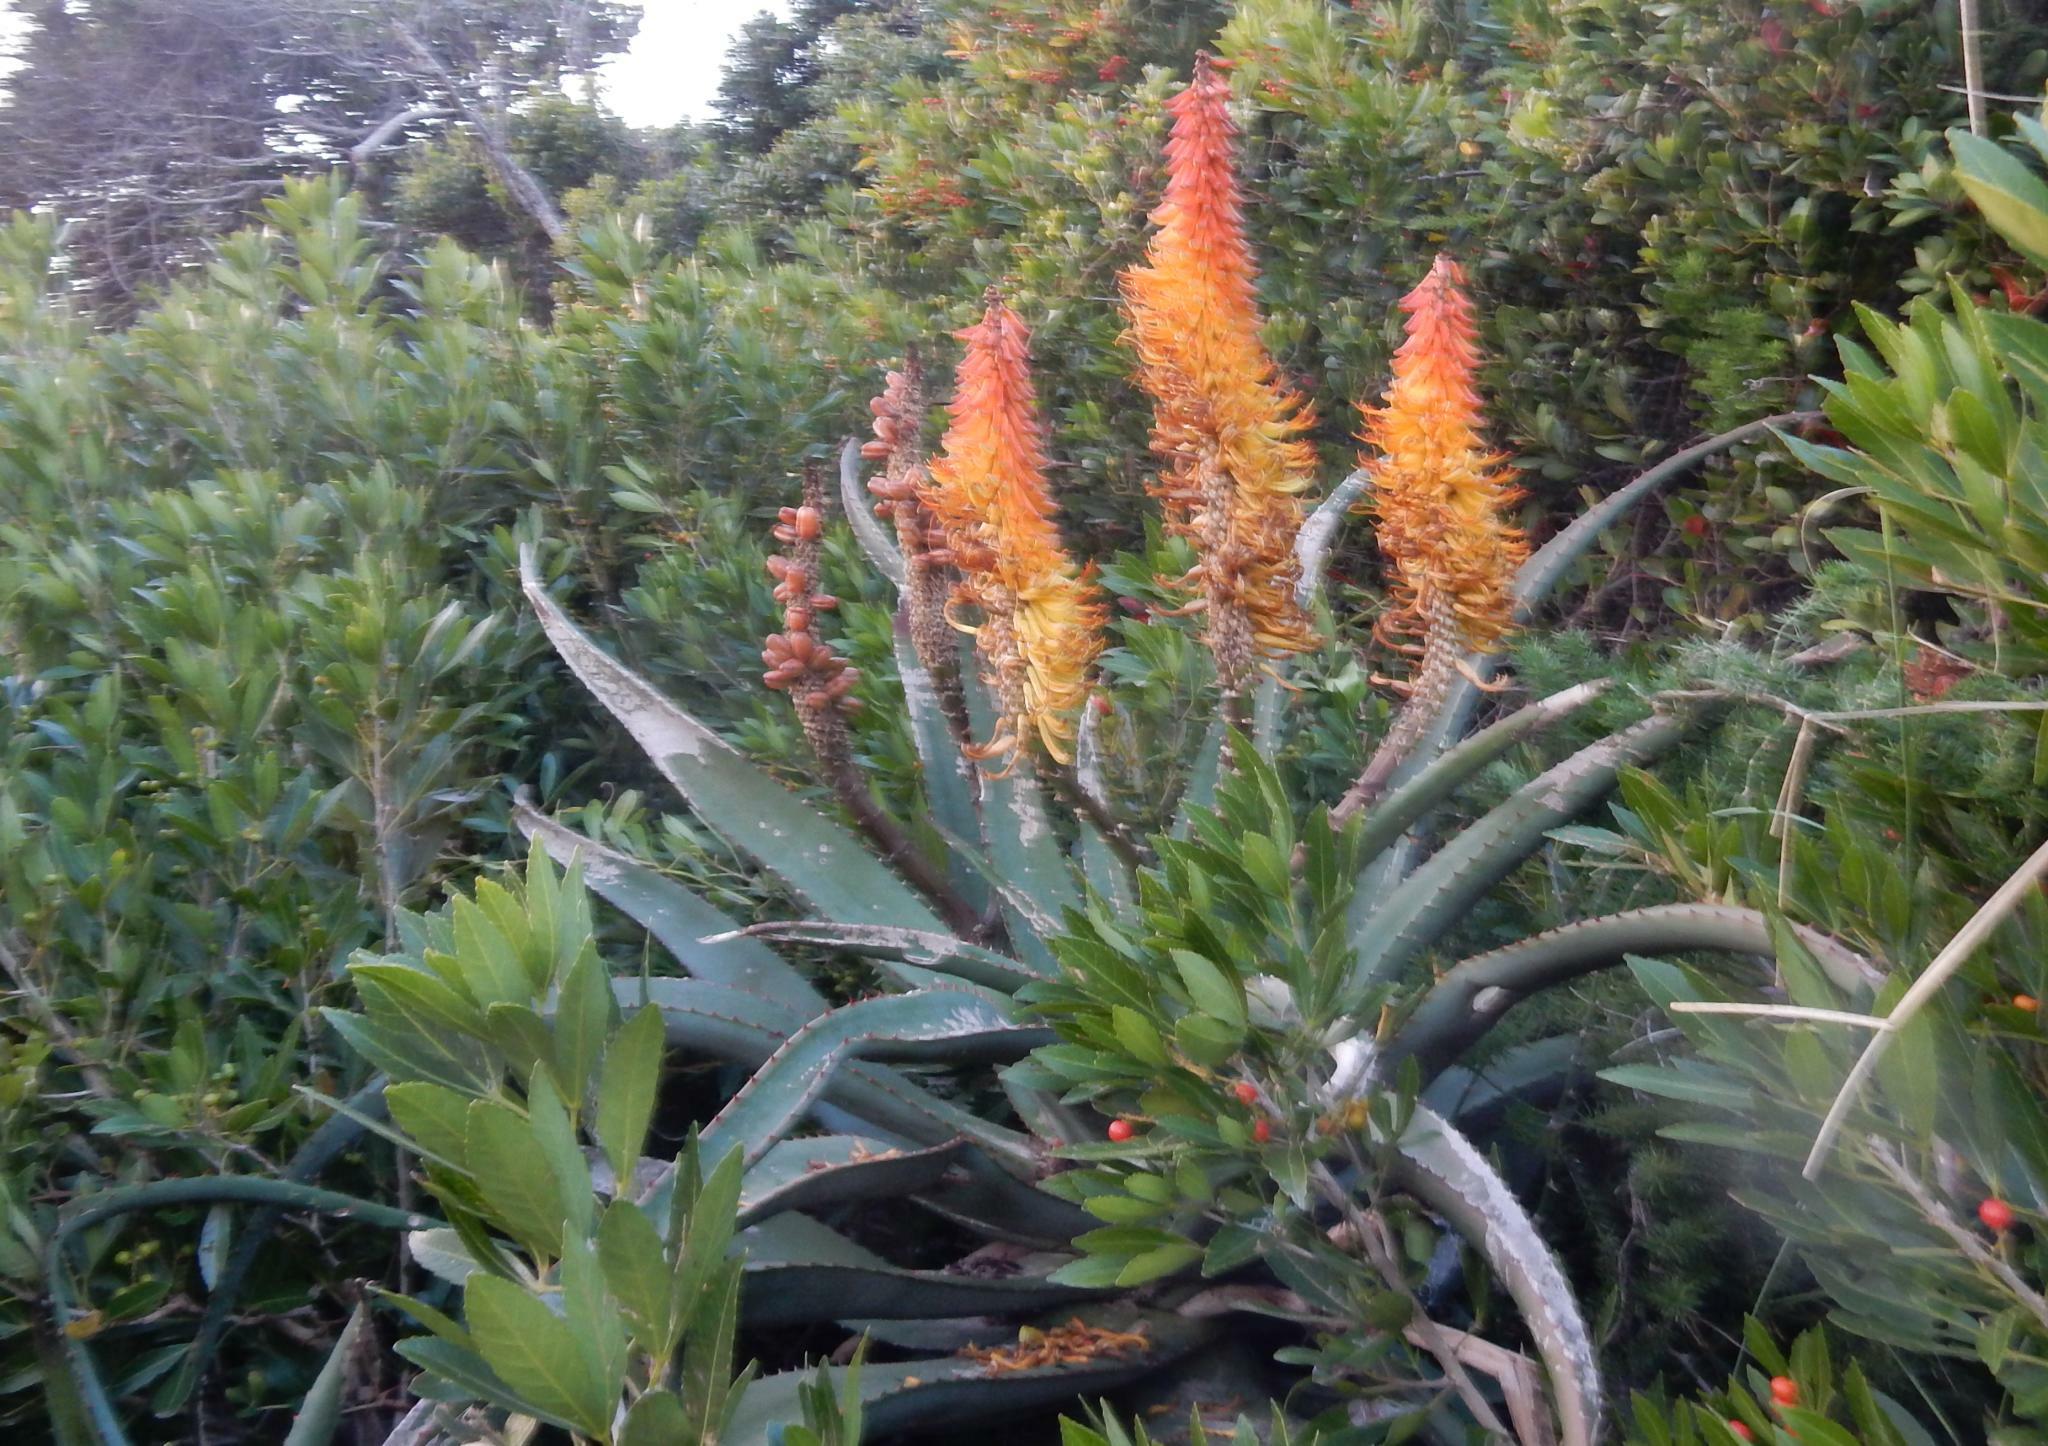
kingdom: Plantae
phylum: Tracheophyta
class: Liliopsida
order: Asparagales
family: Asphodelaceae
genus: Aloe
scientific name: Aloe africana
